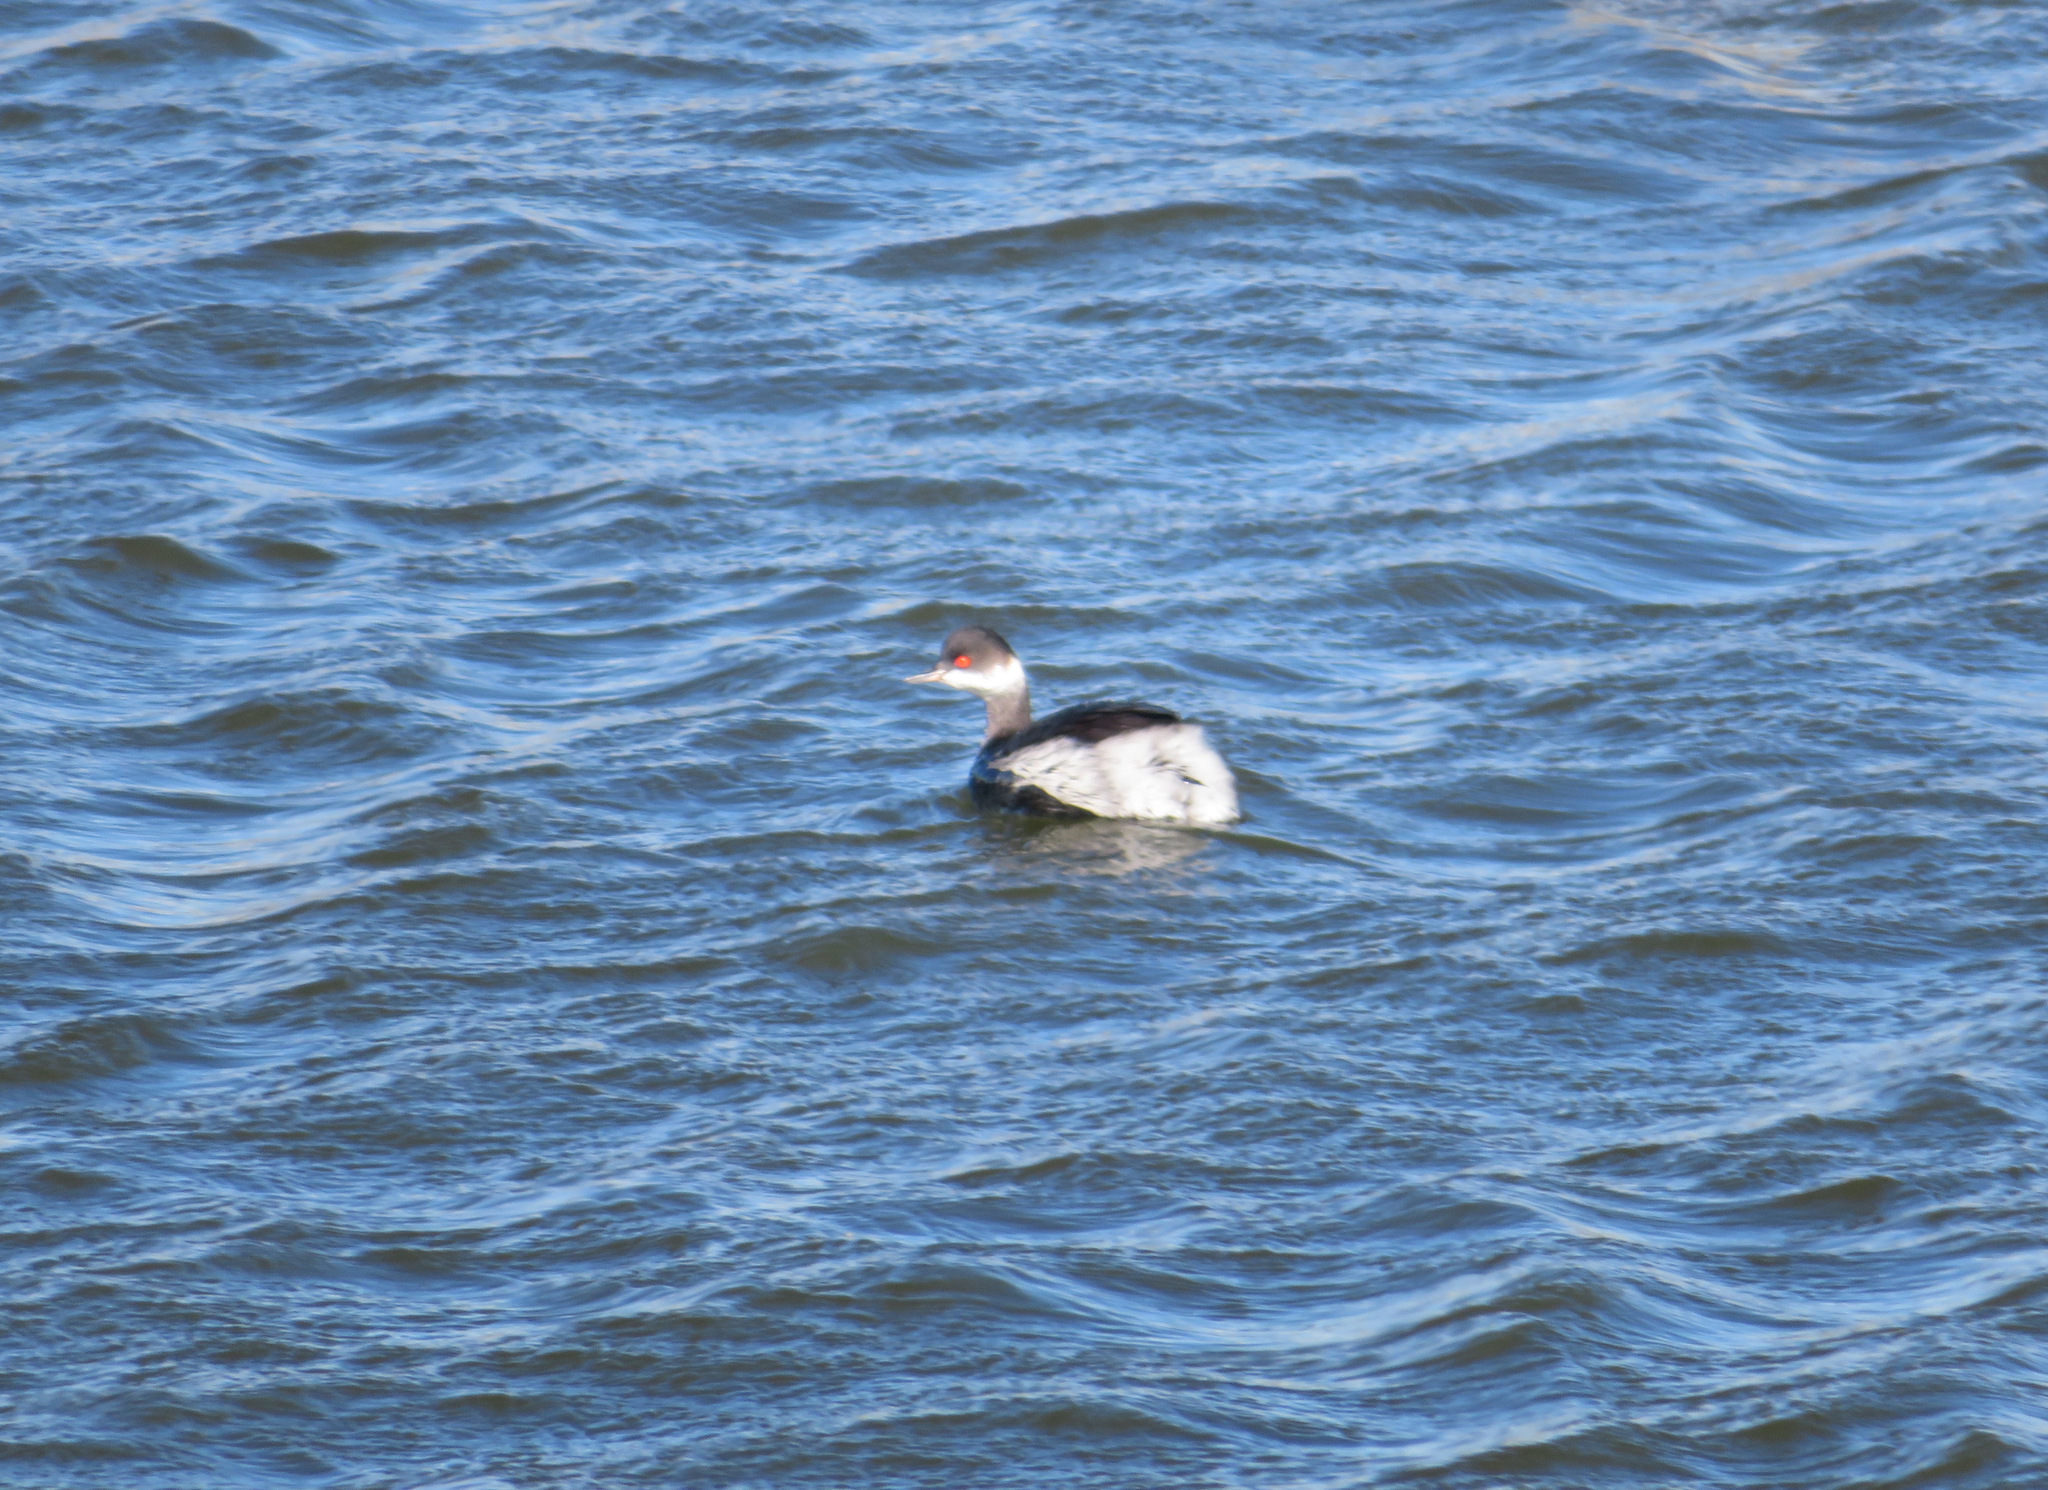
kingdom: Animalia
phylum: Chordata
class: Aves
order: Podicipediformes
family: Podicipedidae
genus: Podiceps
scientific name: Podiceps nigricollis
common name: Black-necked grebe
